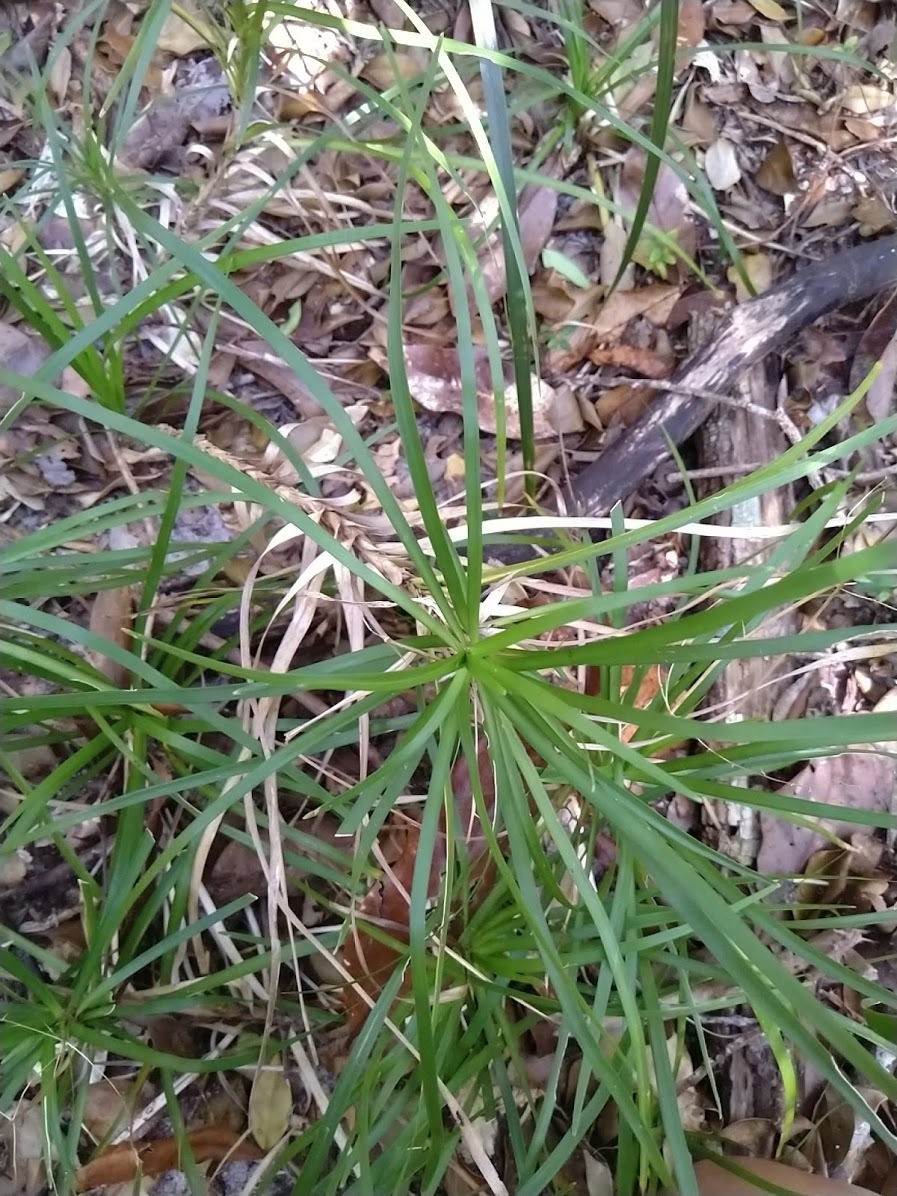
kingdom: Plantae
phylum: Tracheophyta
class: Liliopsida
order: Asparagales
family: Asparagaceae
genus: Lomandra
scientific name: Lomandra laxa
